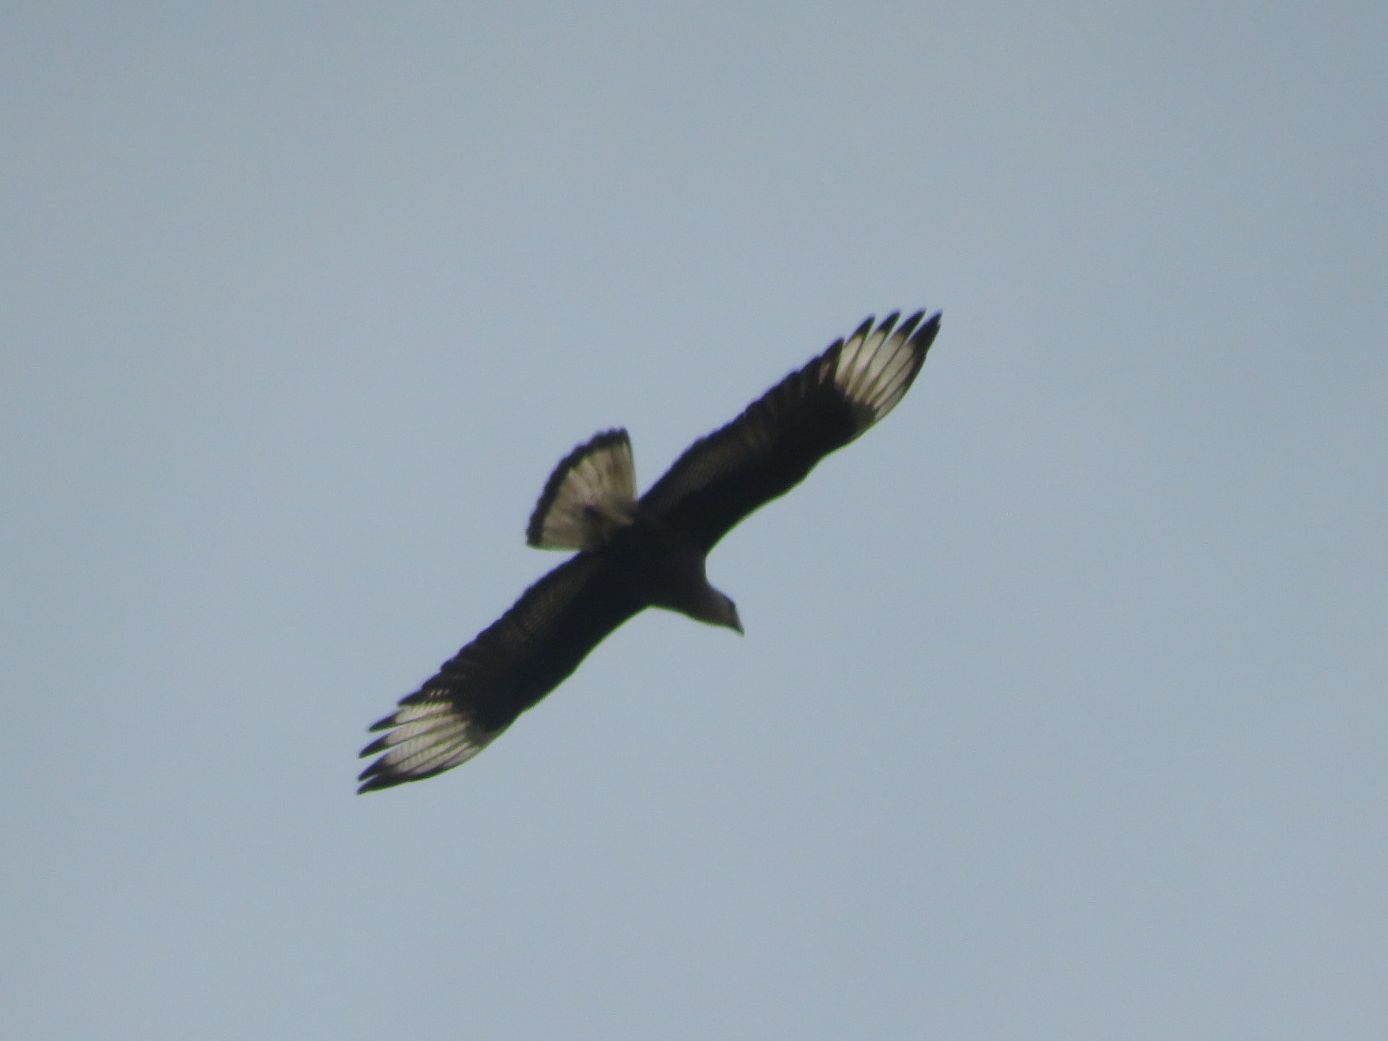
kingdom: Animalia
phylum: Chordata
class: Aves
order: Falconiformes
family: Falconidae
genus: Caracara
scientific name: Caracara plancus
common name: Southern caracara
